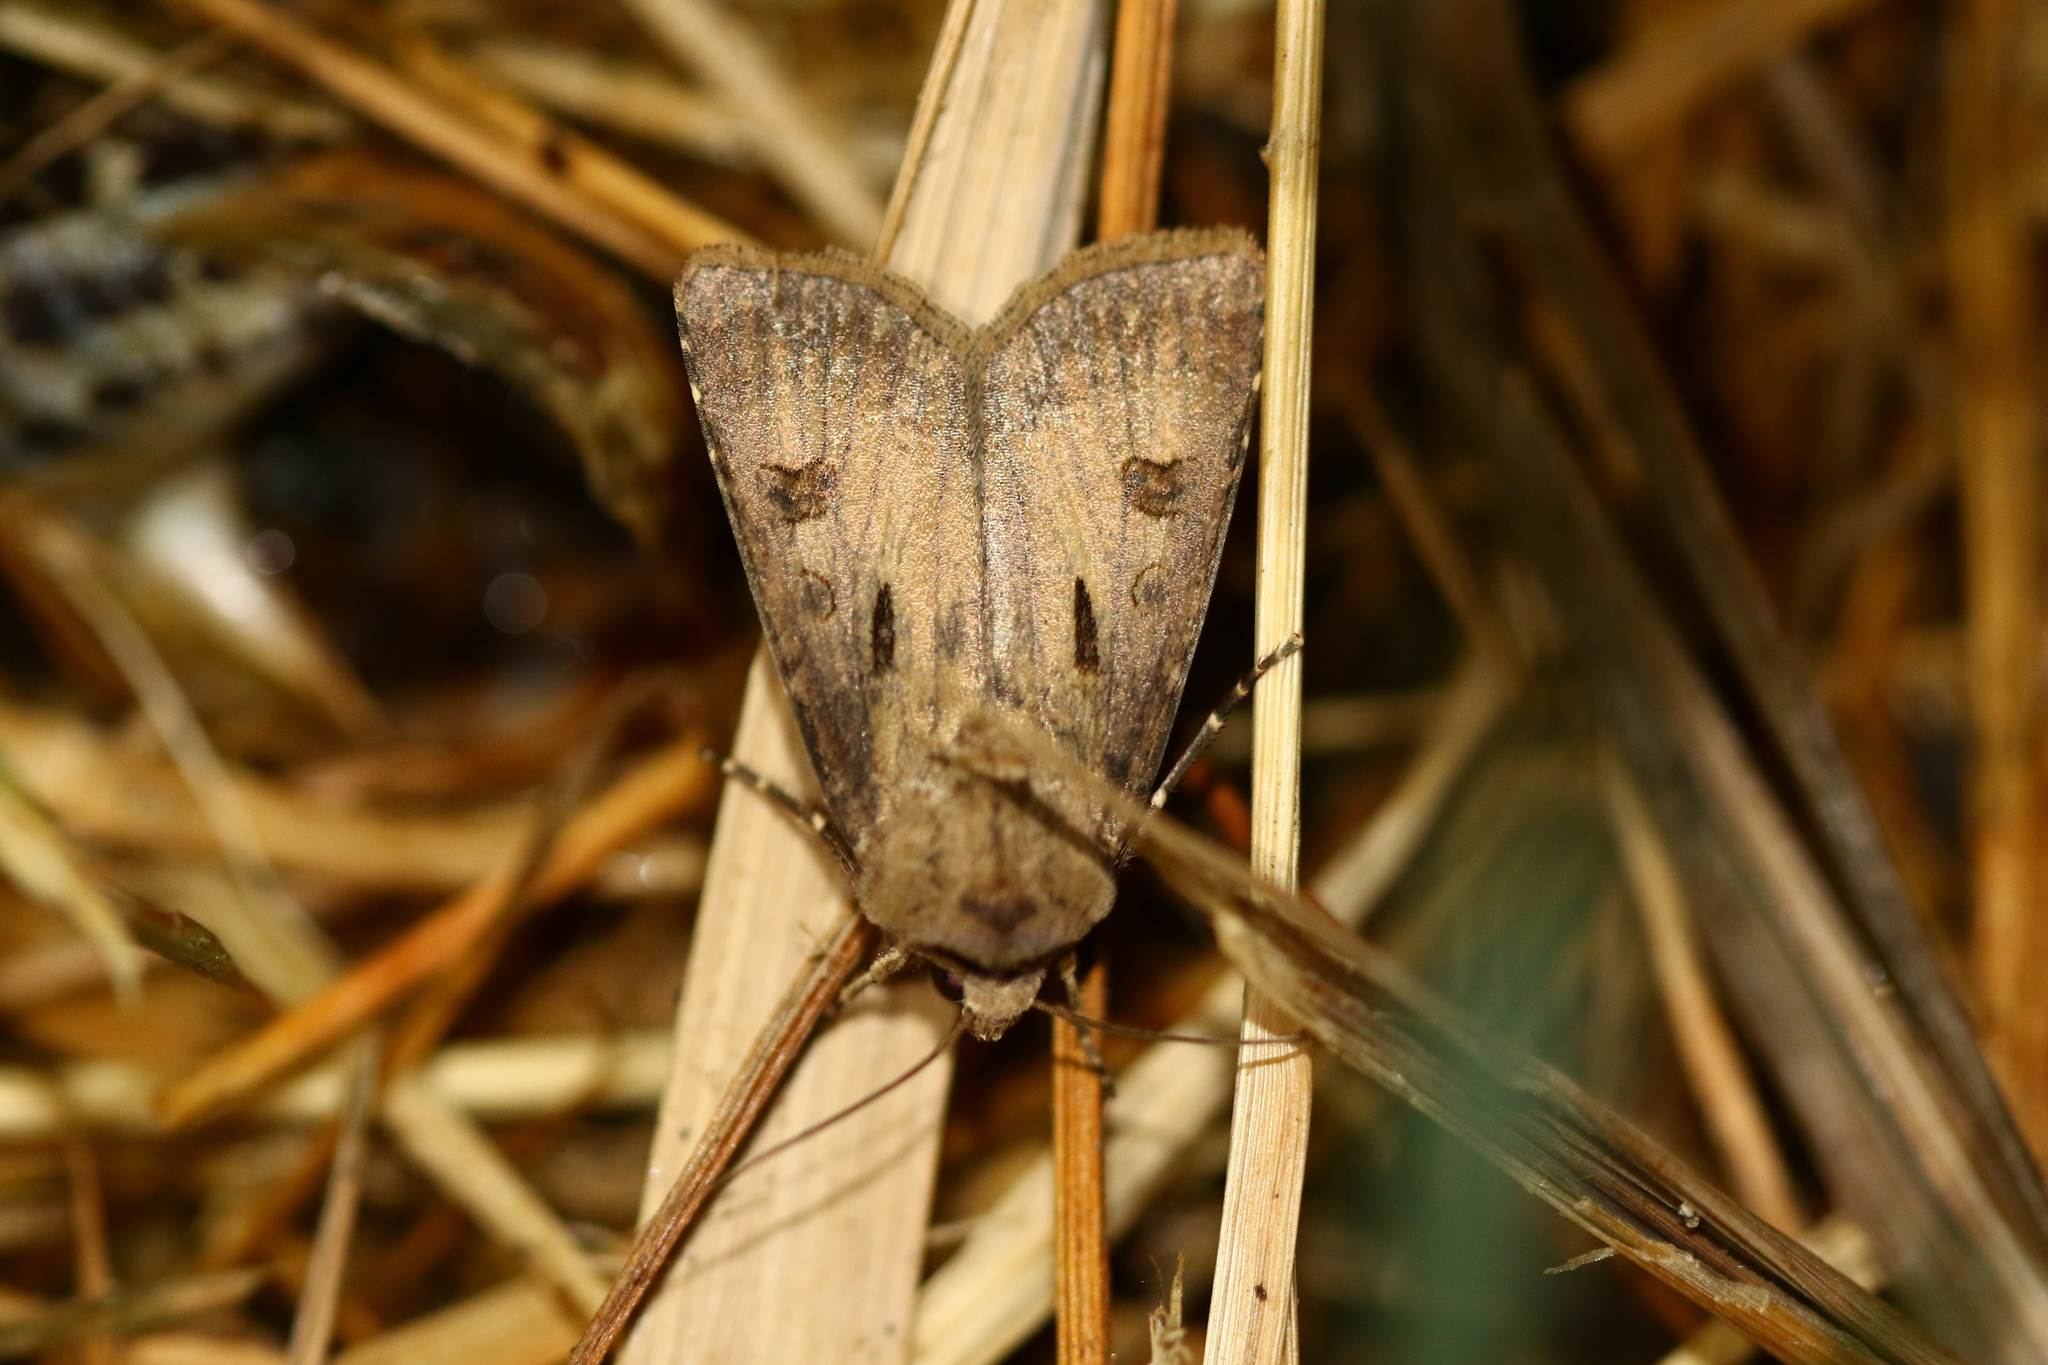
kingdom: Animalia
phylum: Arthropoda
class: Insecta
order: Lepidoptera
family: Noctuidae
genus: Agrotis
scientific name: Agrotis exclamationis
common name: Heart and dart
